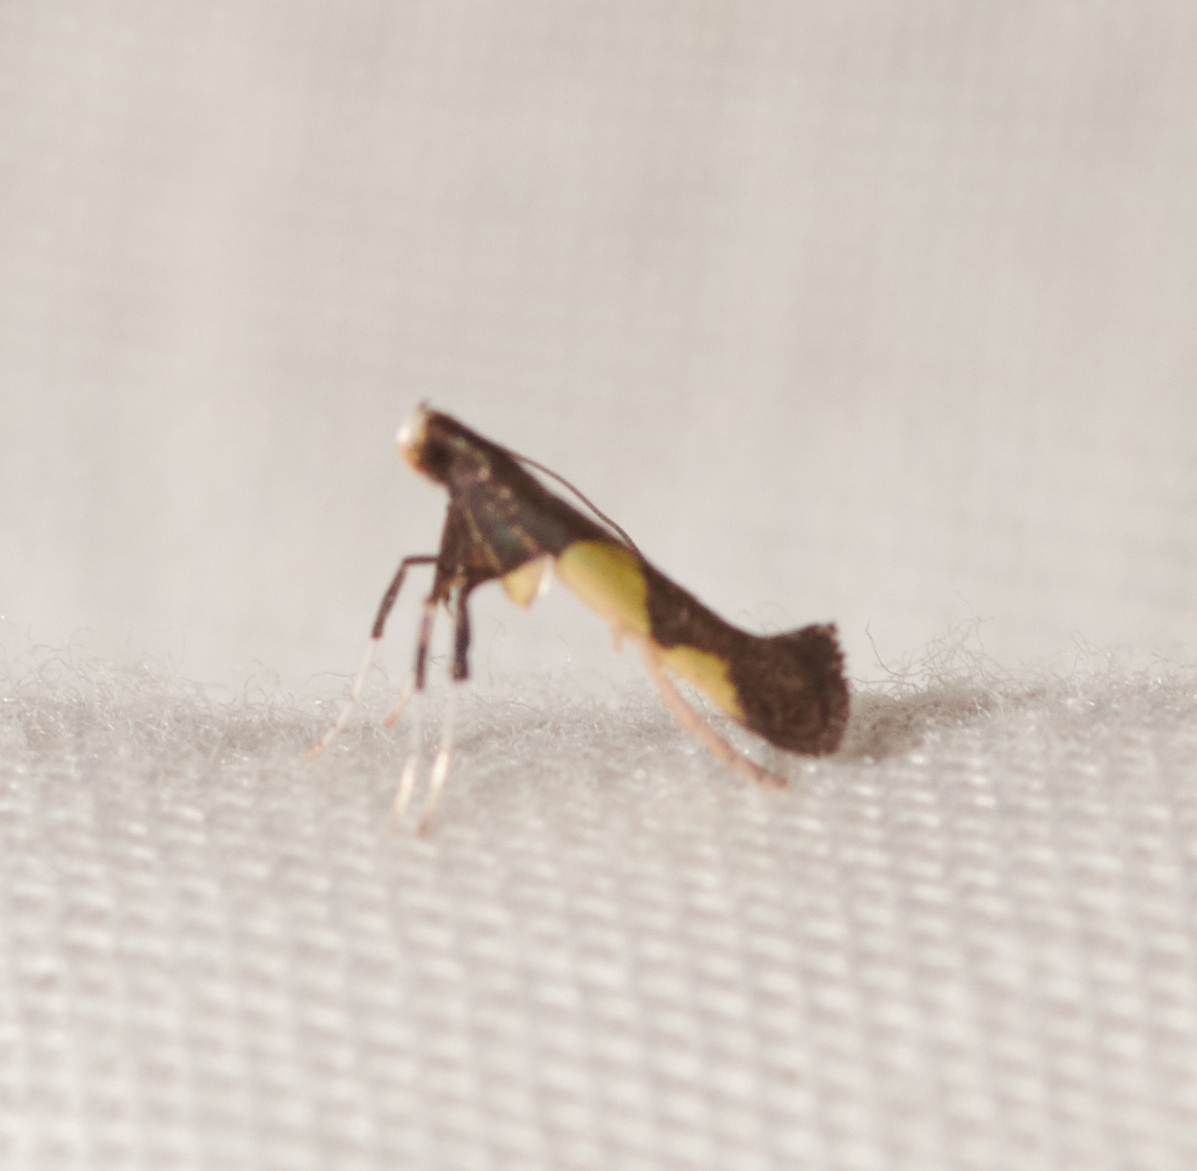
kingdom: Animalia
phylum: Arthropoda
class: Insecta
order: Lepidoptera
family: Gracillariidae
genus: Caloptilia
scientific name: Caloptilia bimaculatella
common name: Maple caloptilia moth
